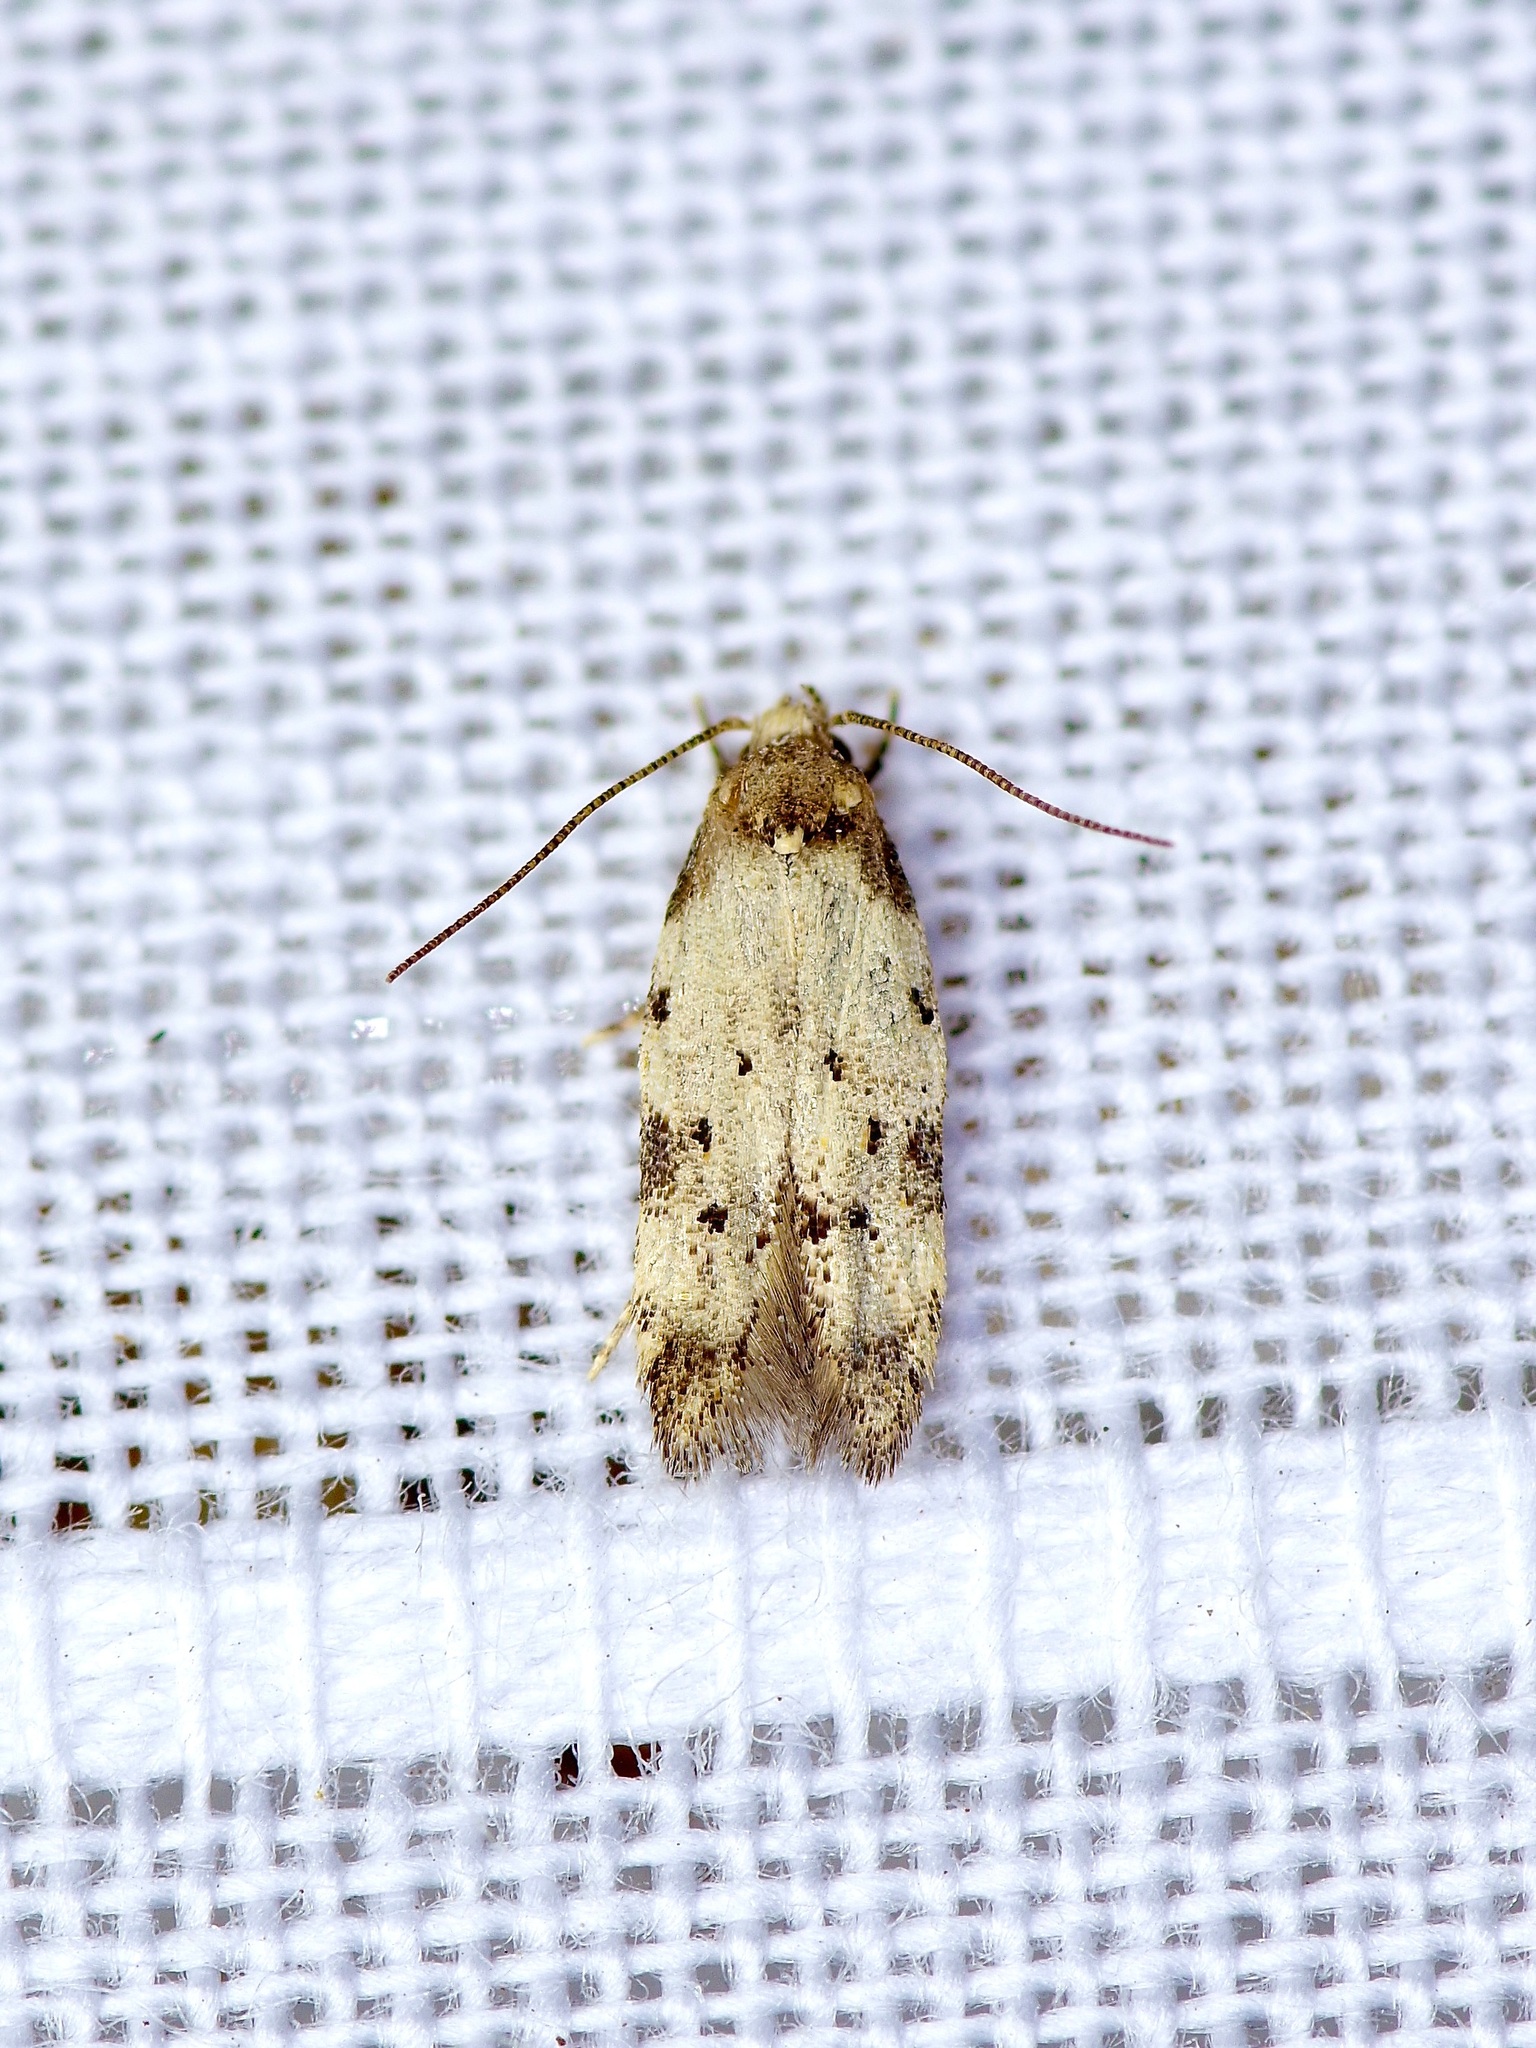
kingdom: Animalia
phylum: Arthropoda
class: Insecta
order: Lepidoptera
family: Autostichidae
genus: Taygete
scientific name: Taygete attributella
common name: Triangle-marked twirler moth
